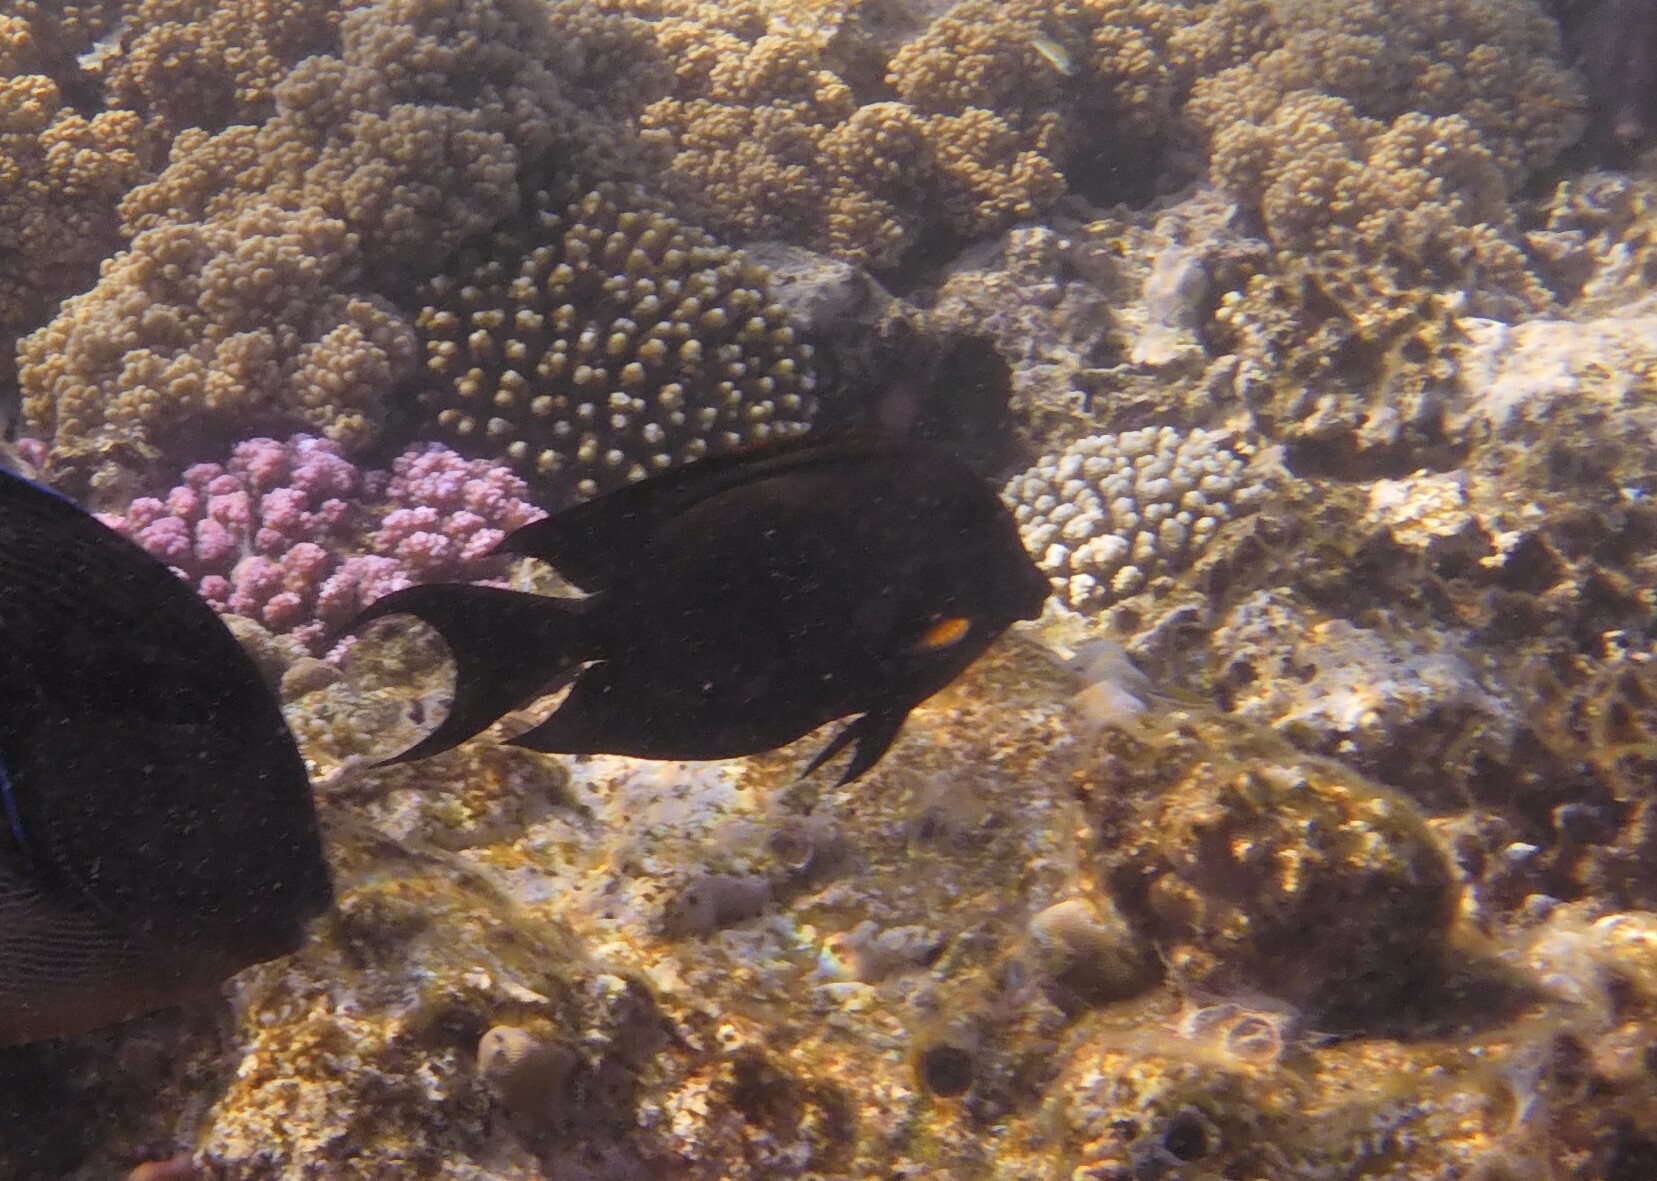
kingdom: Animalia
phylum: Chordata
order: Perciformes
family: Acanthuridae
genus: Ctenochaetus
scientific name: Ctenochaetus striatus
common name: Bristle-toothed surgeonfish
